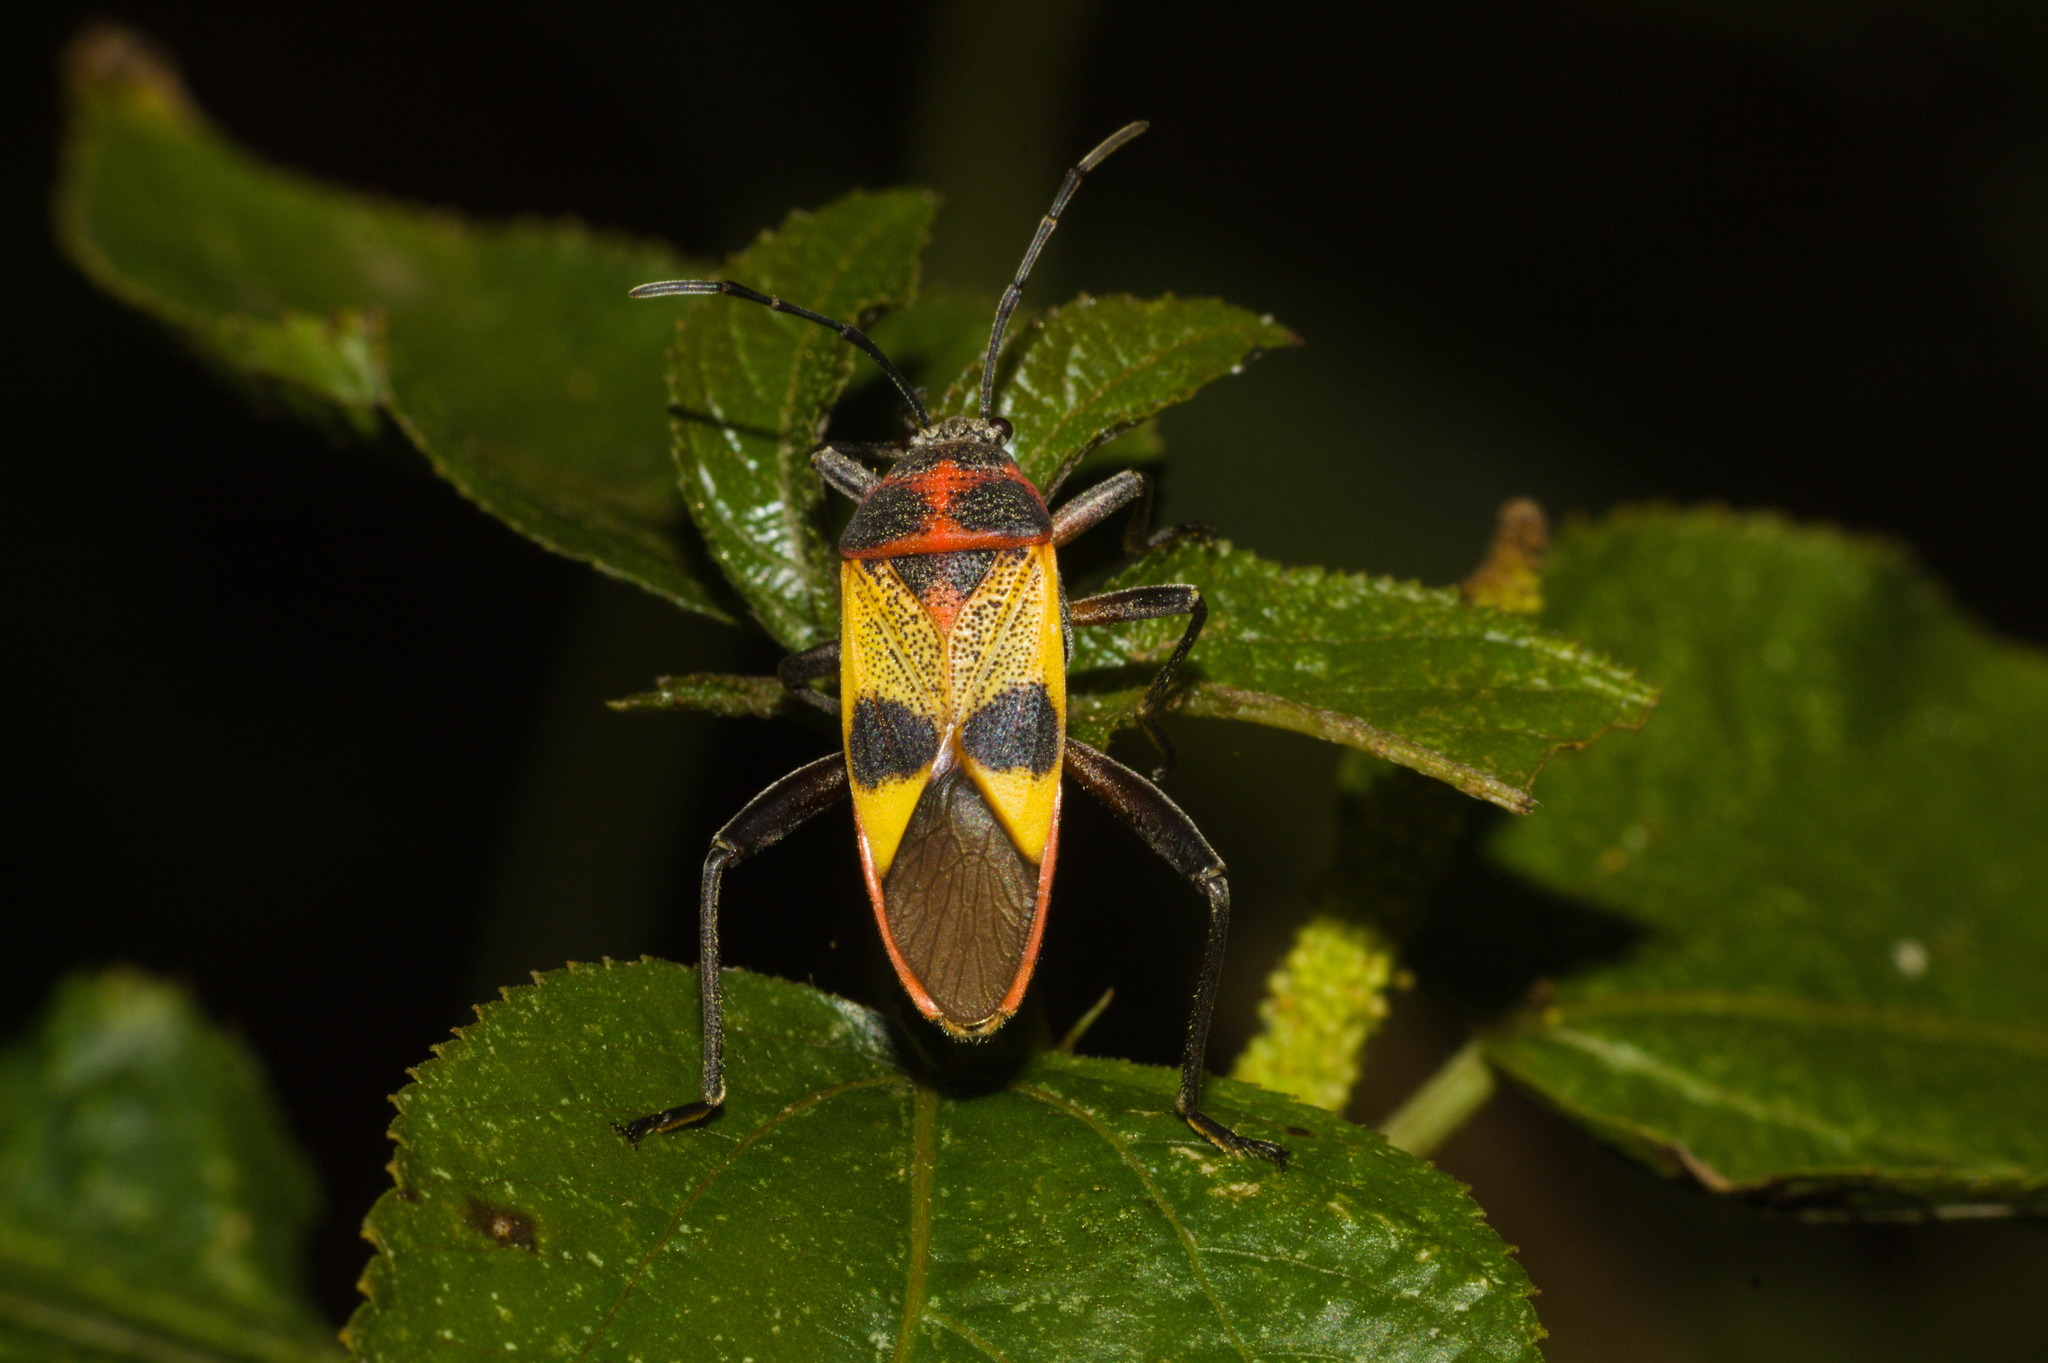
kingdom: Animalia
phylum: Arthropoda
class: Insecta
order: Hemiptera
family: Largidae
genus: Largus
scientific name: Largus ceblini
